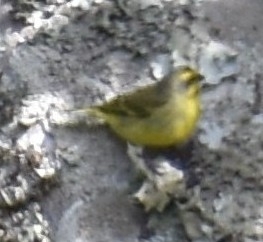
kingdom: Animalia
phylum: Chordata
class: Aves
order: Passeriformes
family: Fringillidae
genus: Crithagra
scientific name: Crithagra mozambica
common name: Yellow-fronted canary
